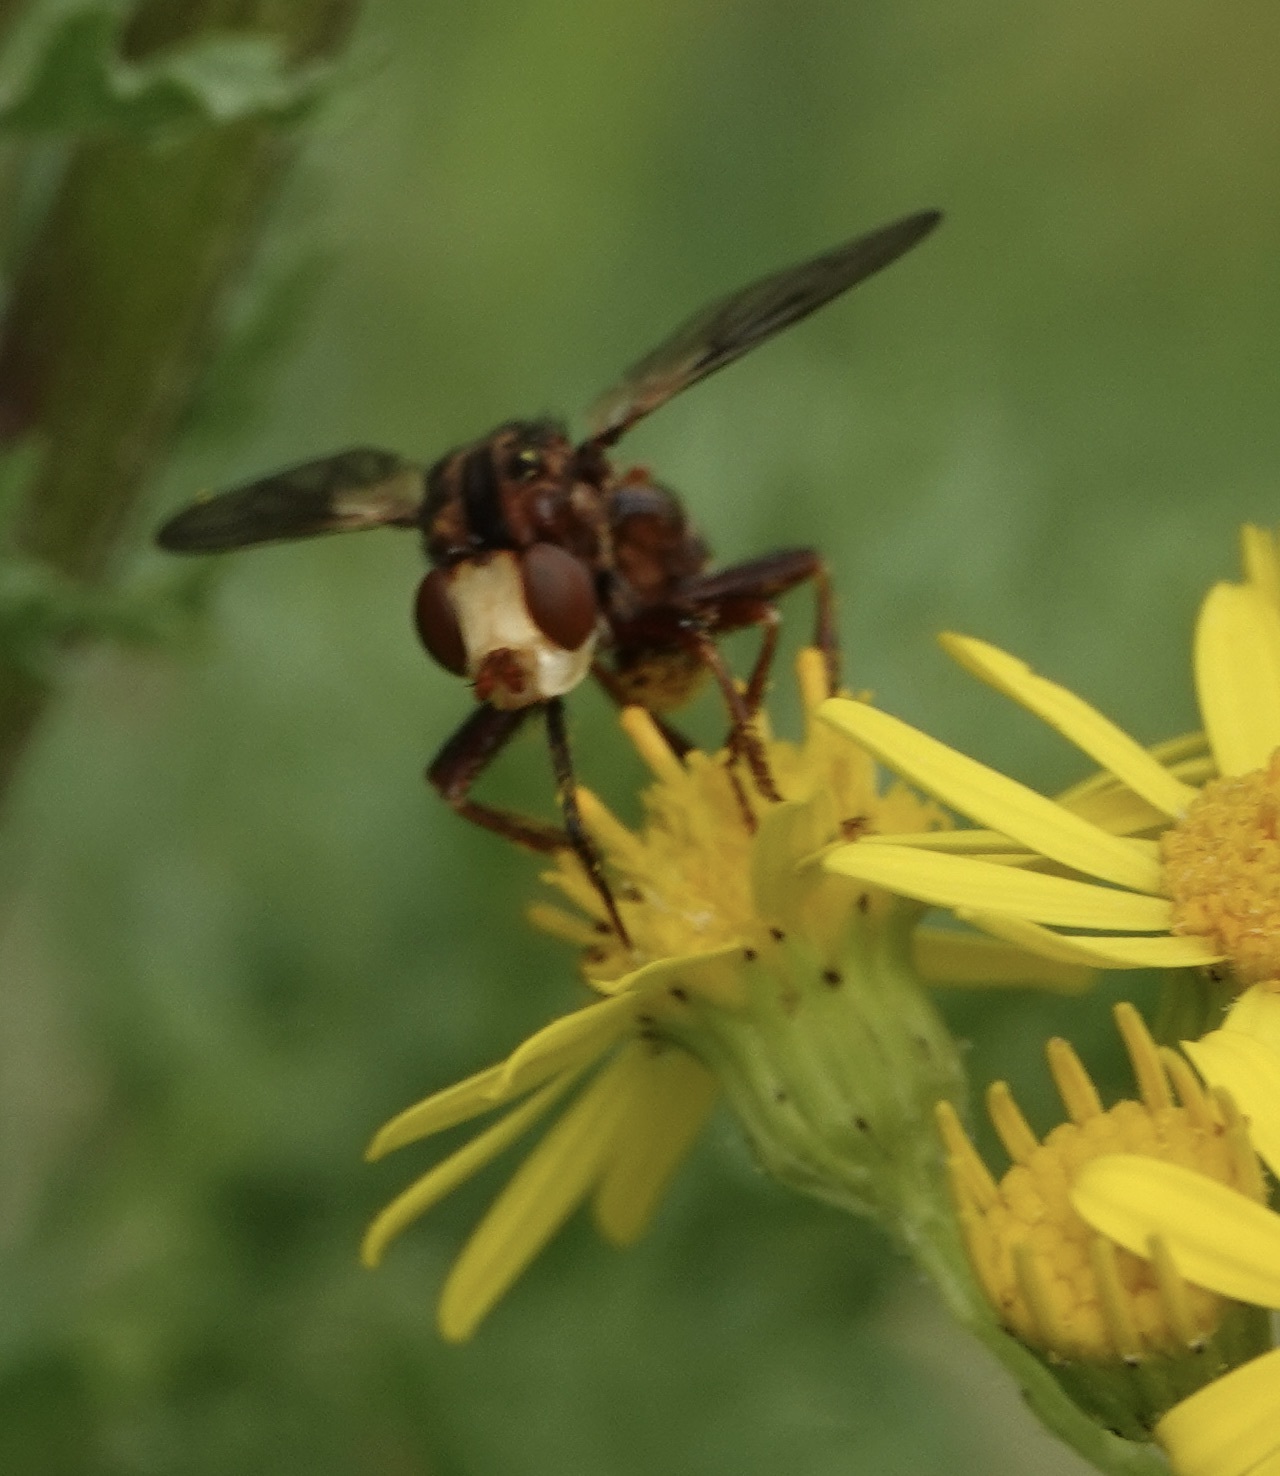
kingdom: Animalia
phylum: Arthropoda
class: Insecta
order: Diptera
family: Conopidae
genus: Sicus
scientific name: Sicus ferrugineus
